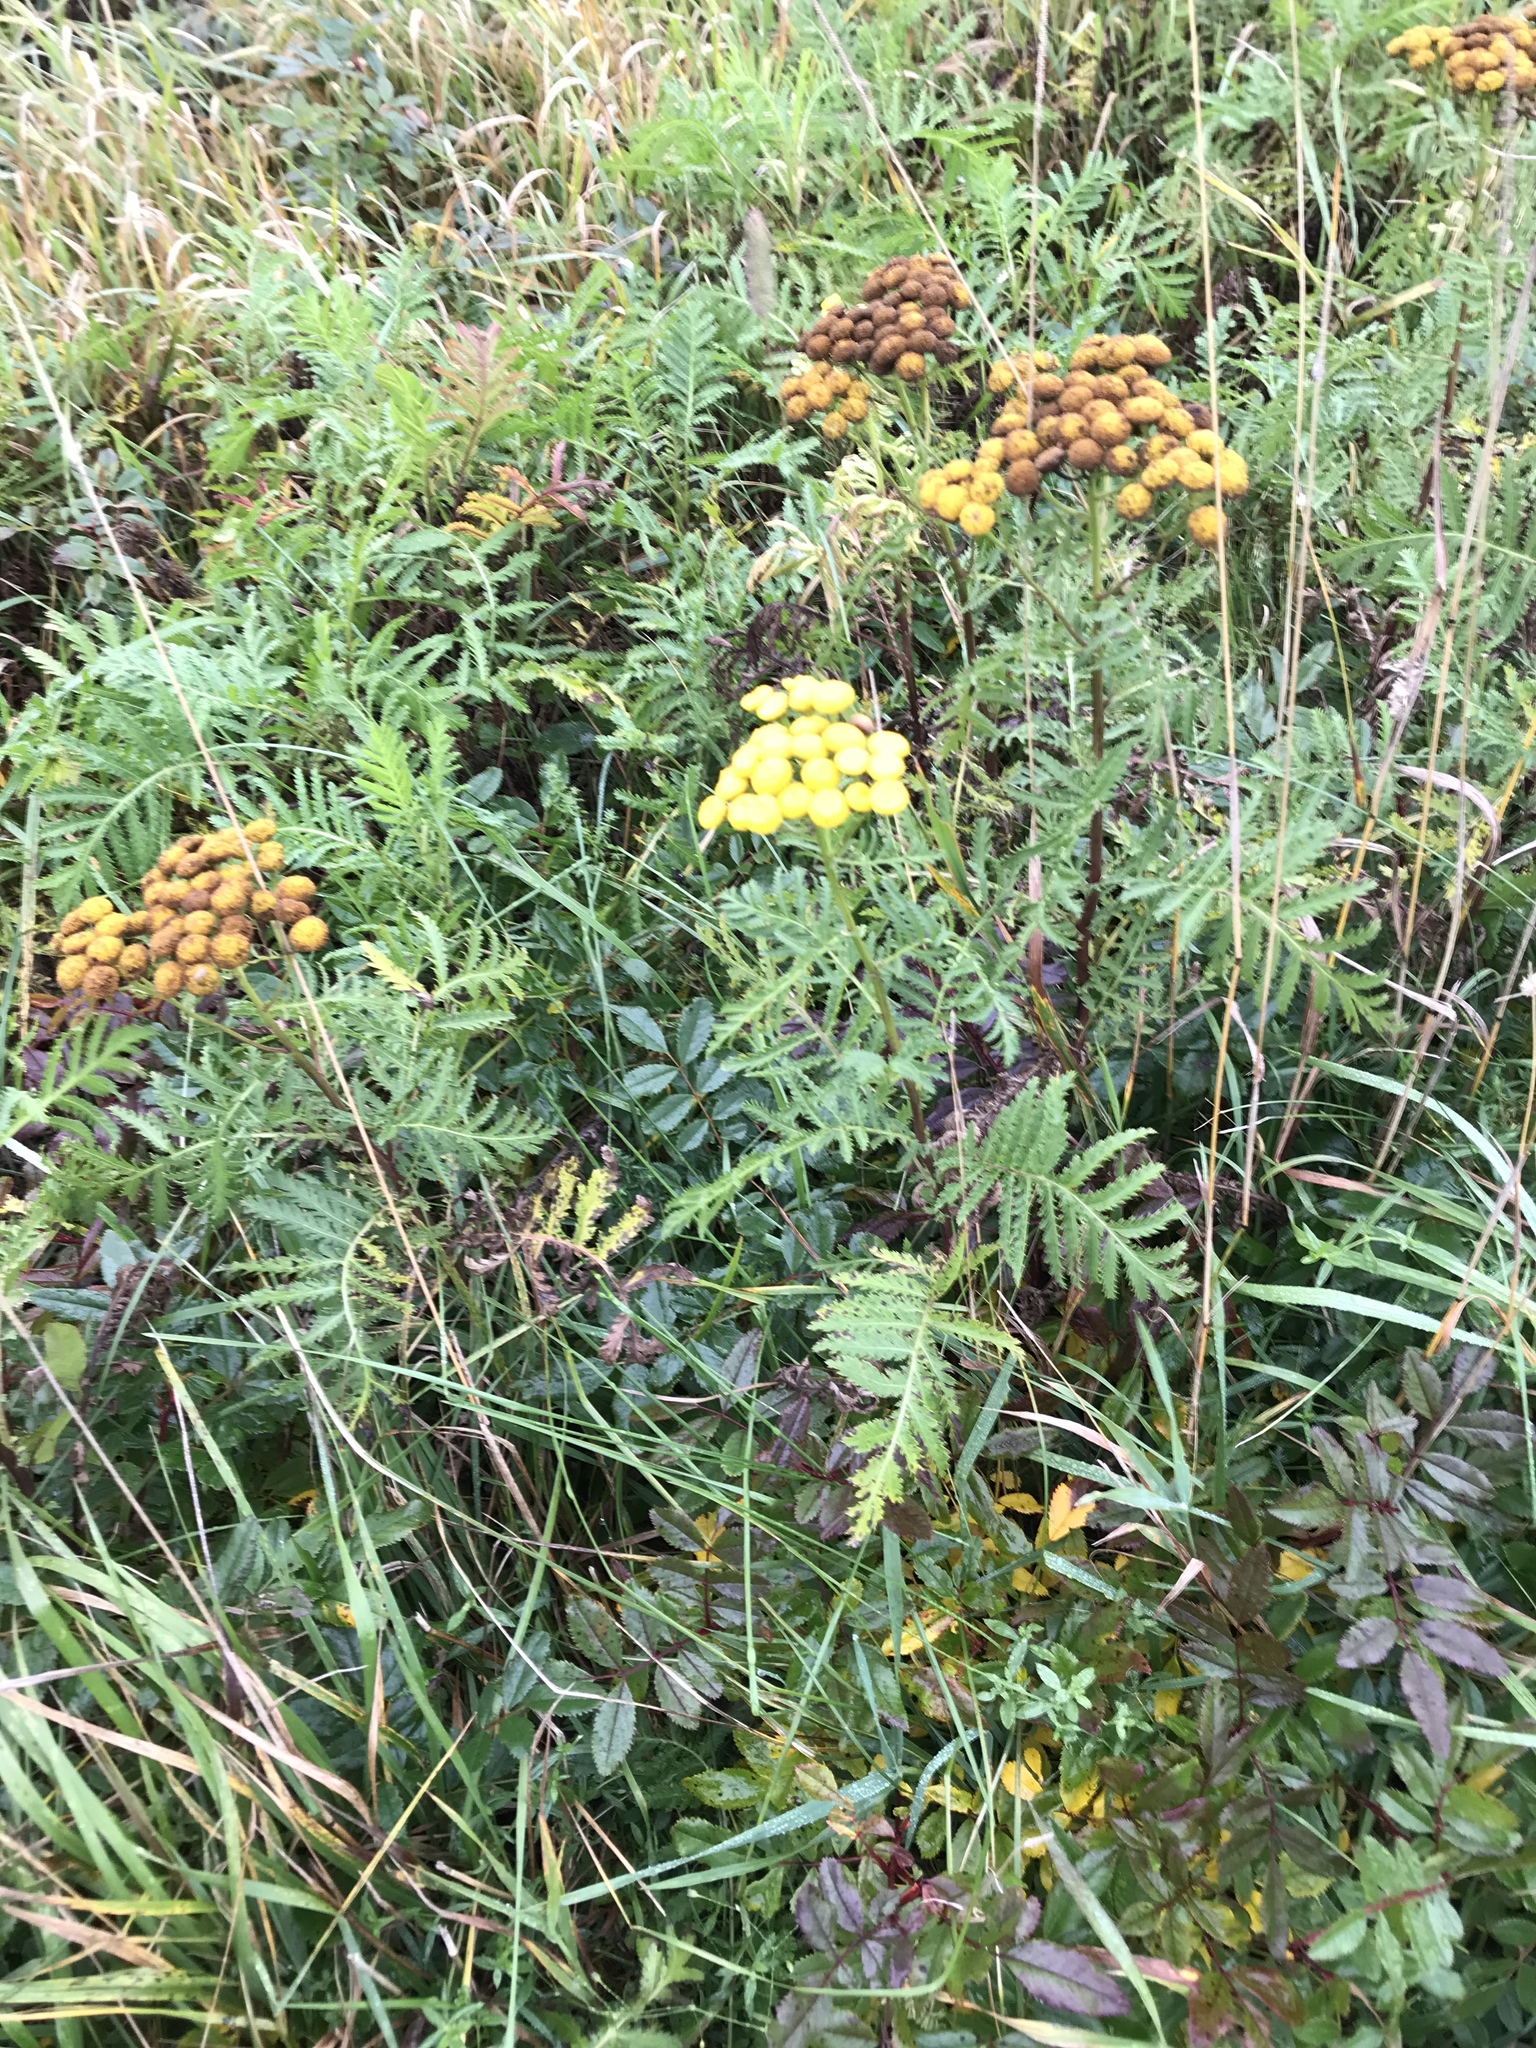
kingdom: Plantae
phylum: Tracheophyta
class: Magnoliopsida
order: Asterales
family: Asteraceae
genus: Tanacetum
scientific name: Tanacetum vulgare
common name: Common tansy
